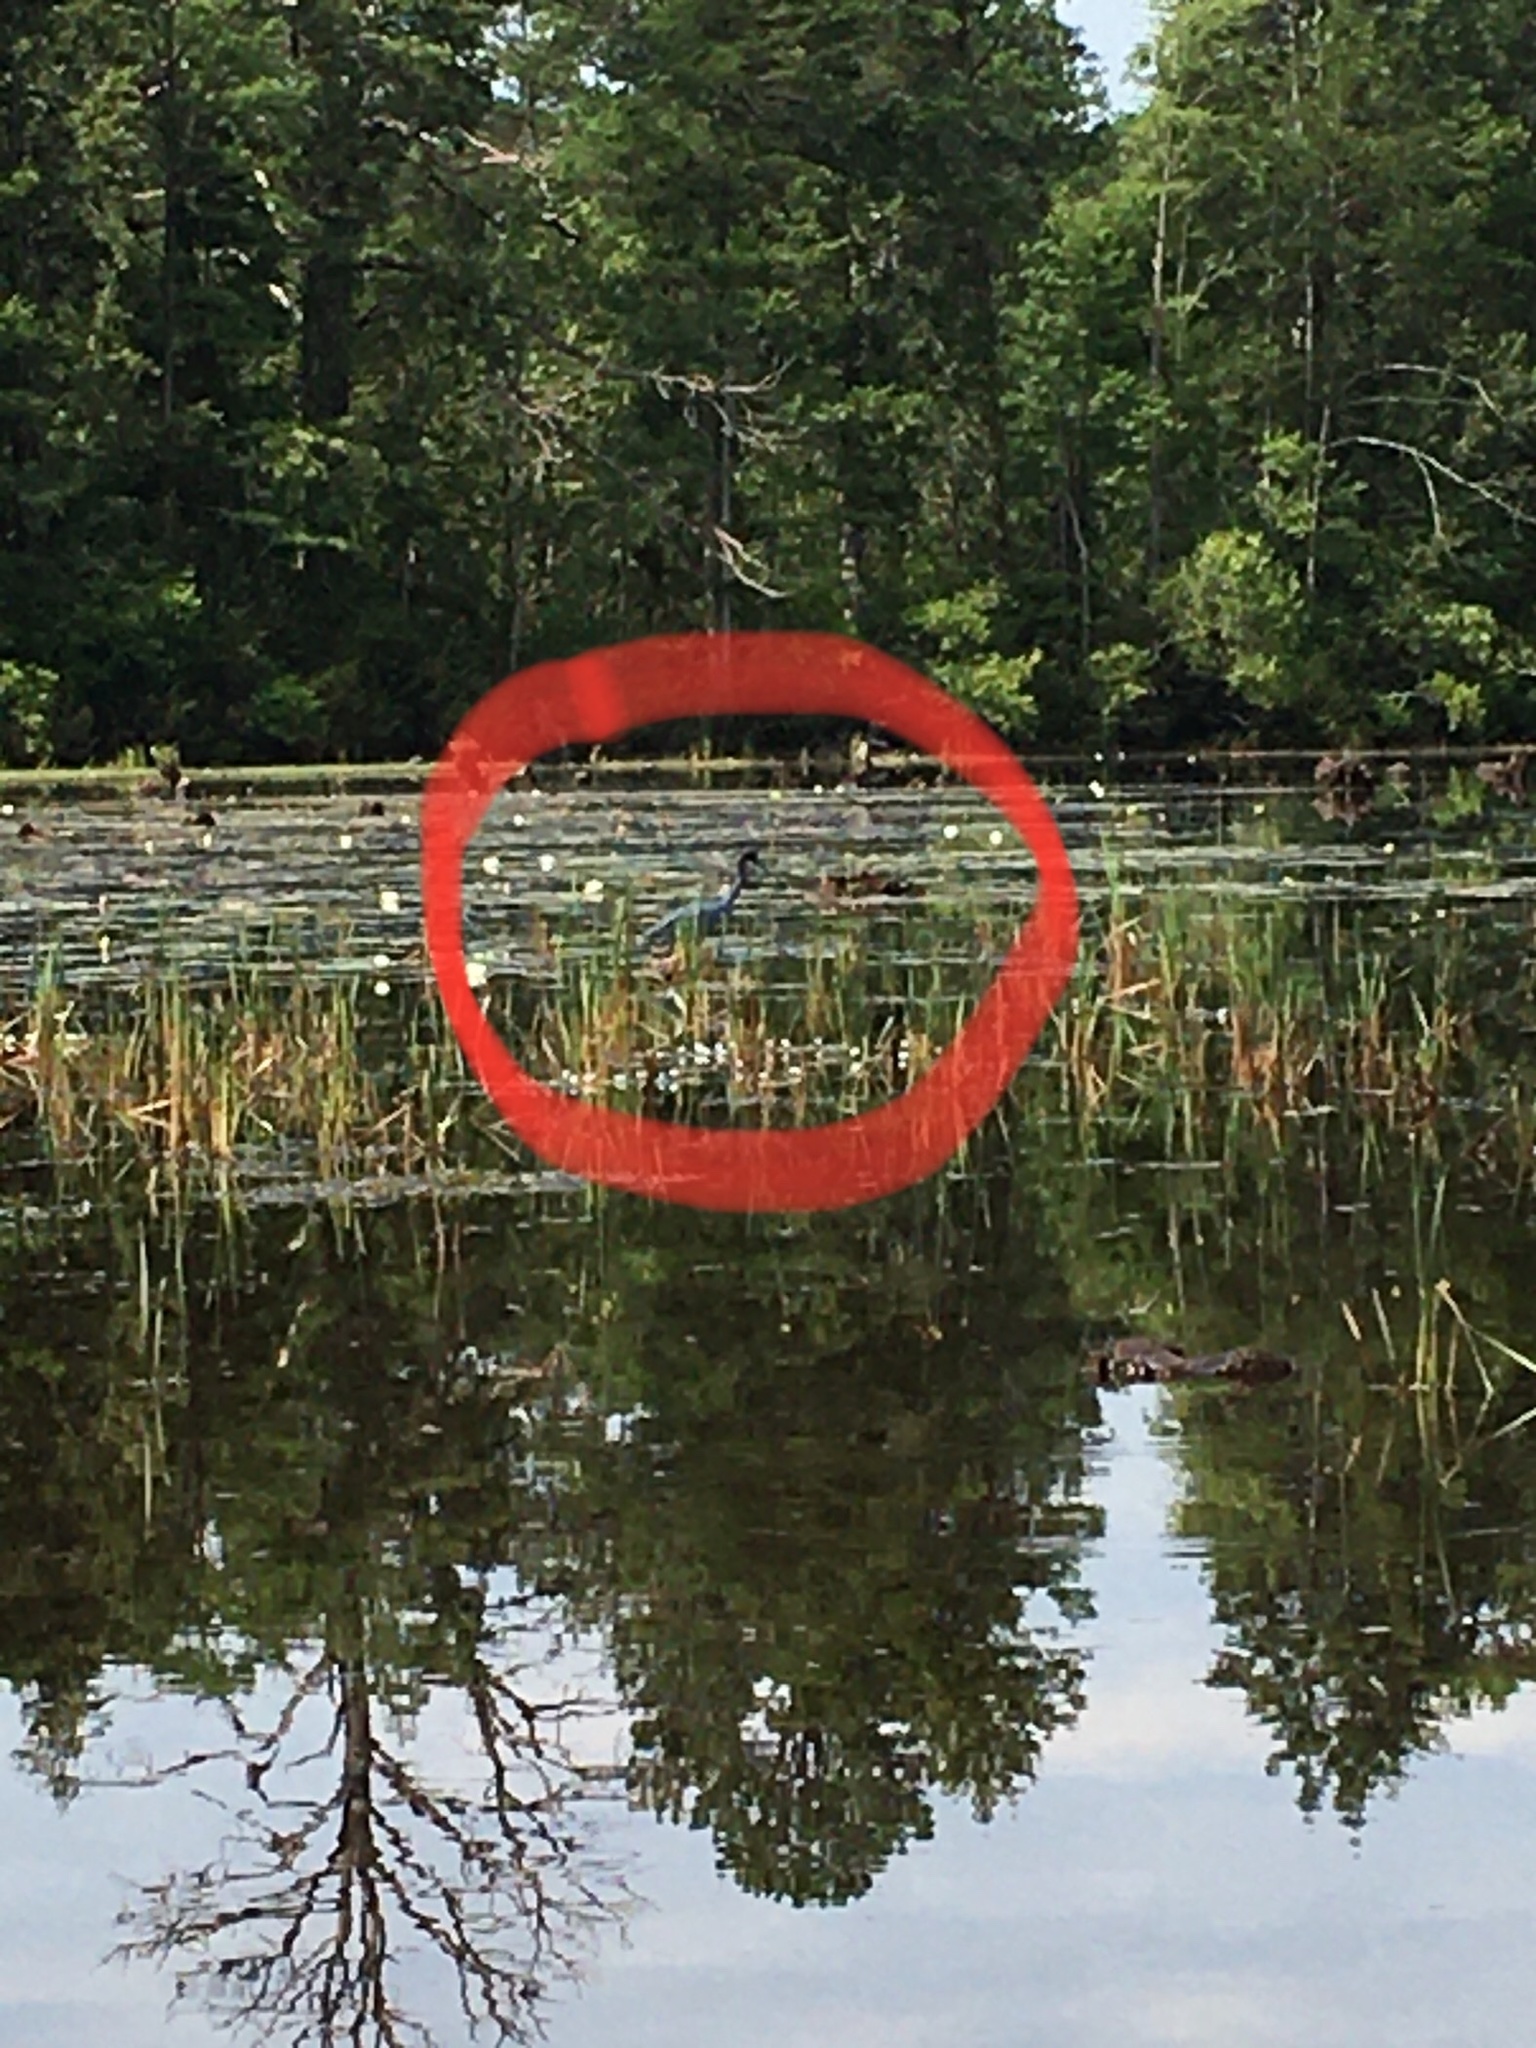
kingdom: Animalia
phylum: Chordata
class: Aves
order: Pelecaniformes
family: Ardeidae
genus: Egretta
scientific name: Egretta caerulea
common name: Little blue heron
